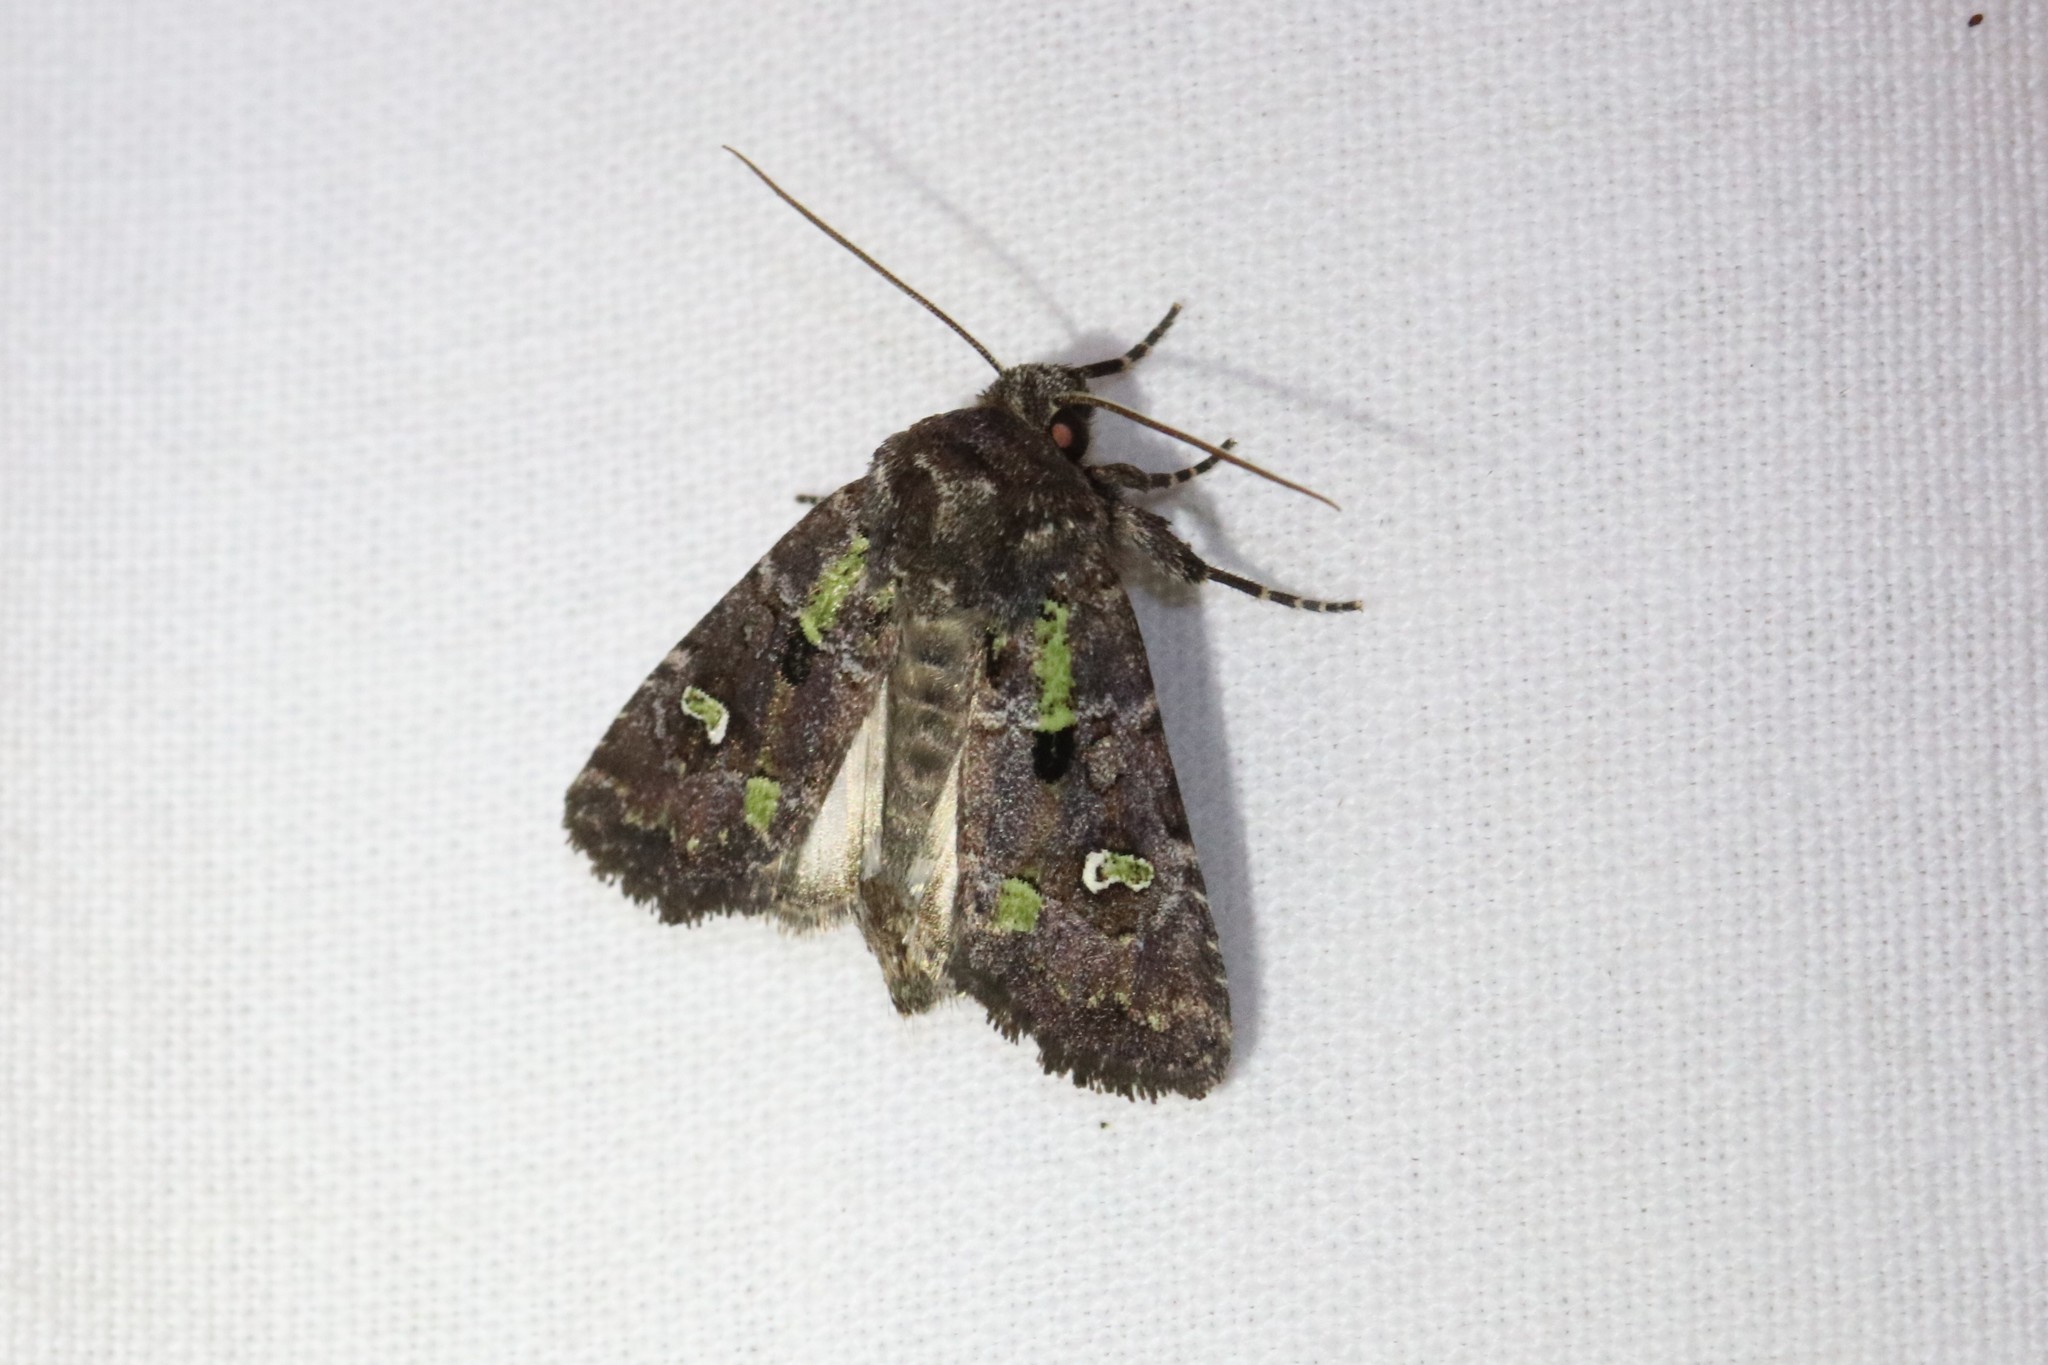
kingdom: Animalia
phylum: Arthropoda
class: Insecta
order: Lepidoptera
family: Noctuidae
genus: Lacinipolia
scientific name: Lacinipolia renigera
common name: Kidney-spotted minor
